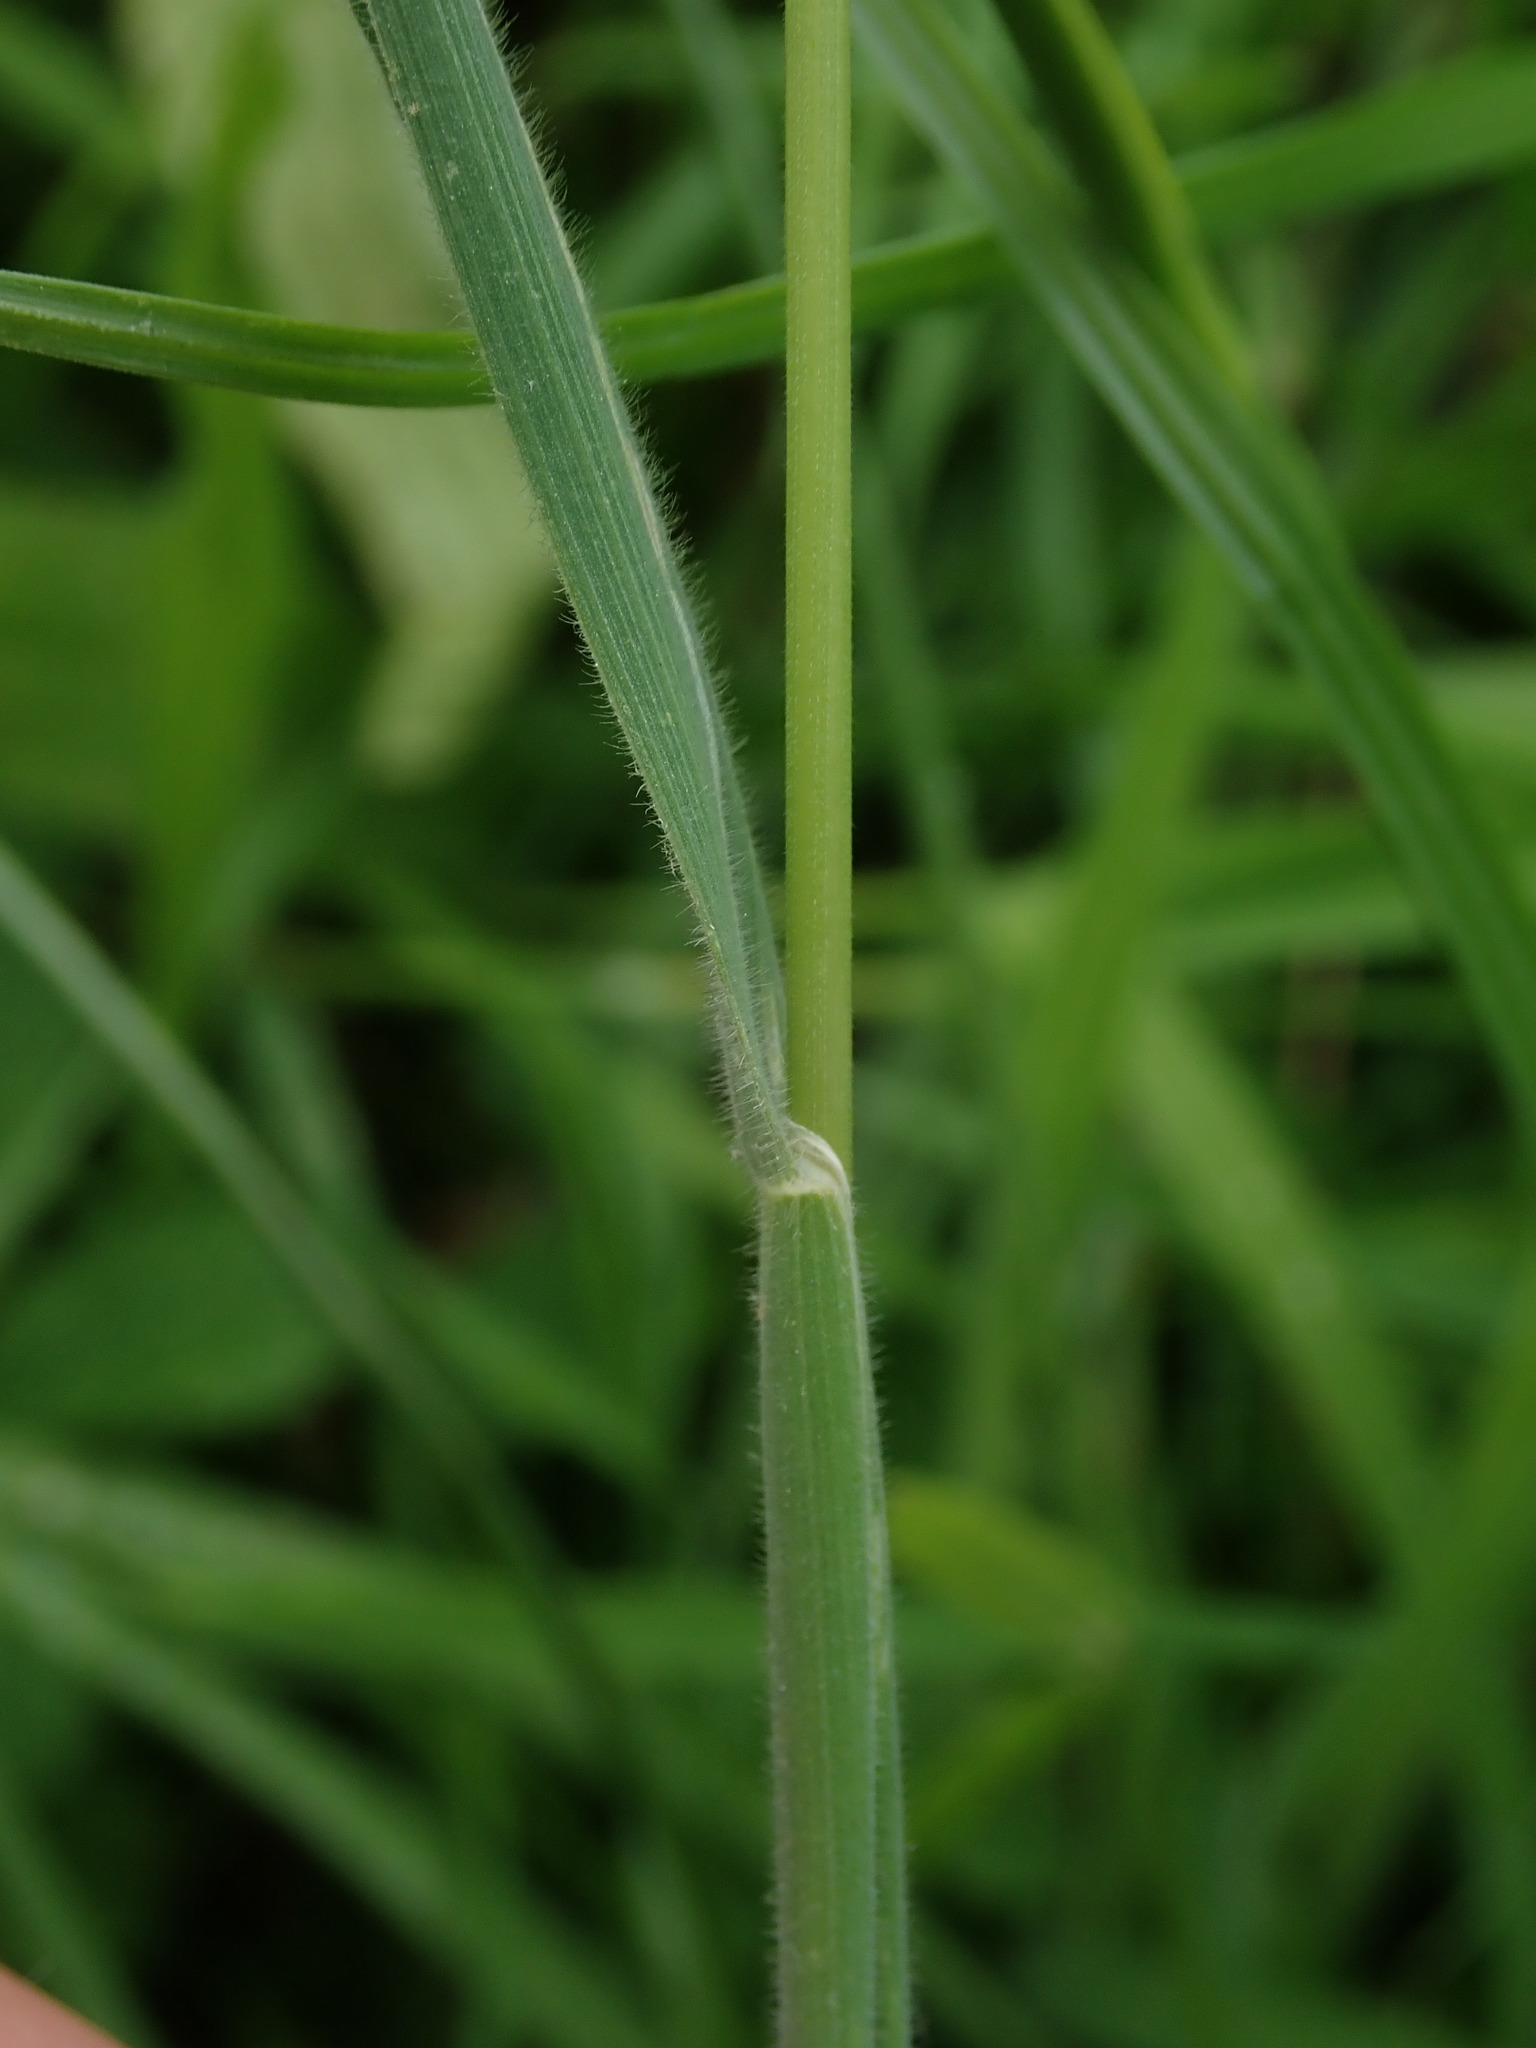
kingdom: Plantae
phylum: Tracheophyta
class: Liliopsida
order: Poales
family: Poaceae
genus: Holcus
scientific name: Holcus lanatus
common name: Yorkshire-fog
